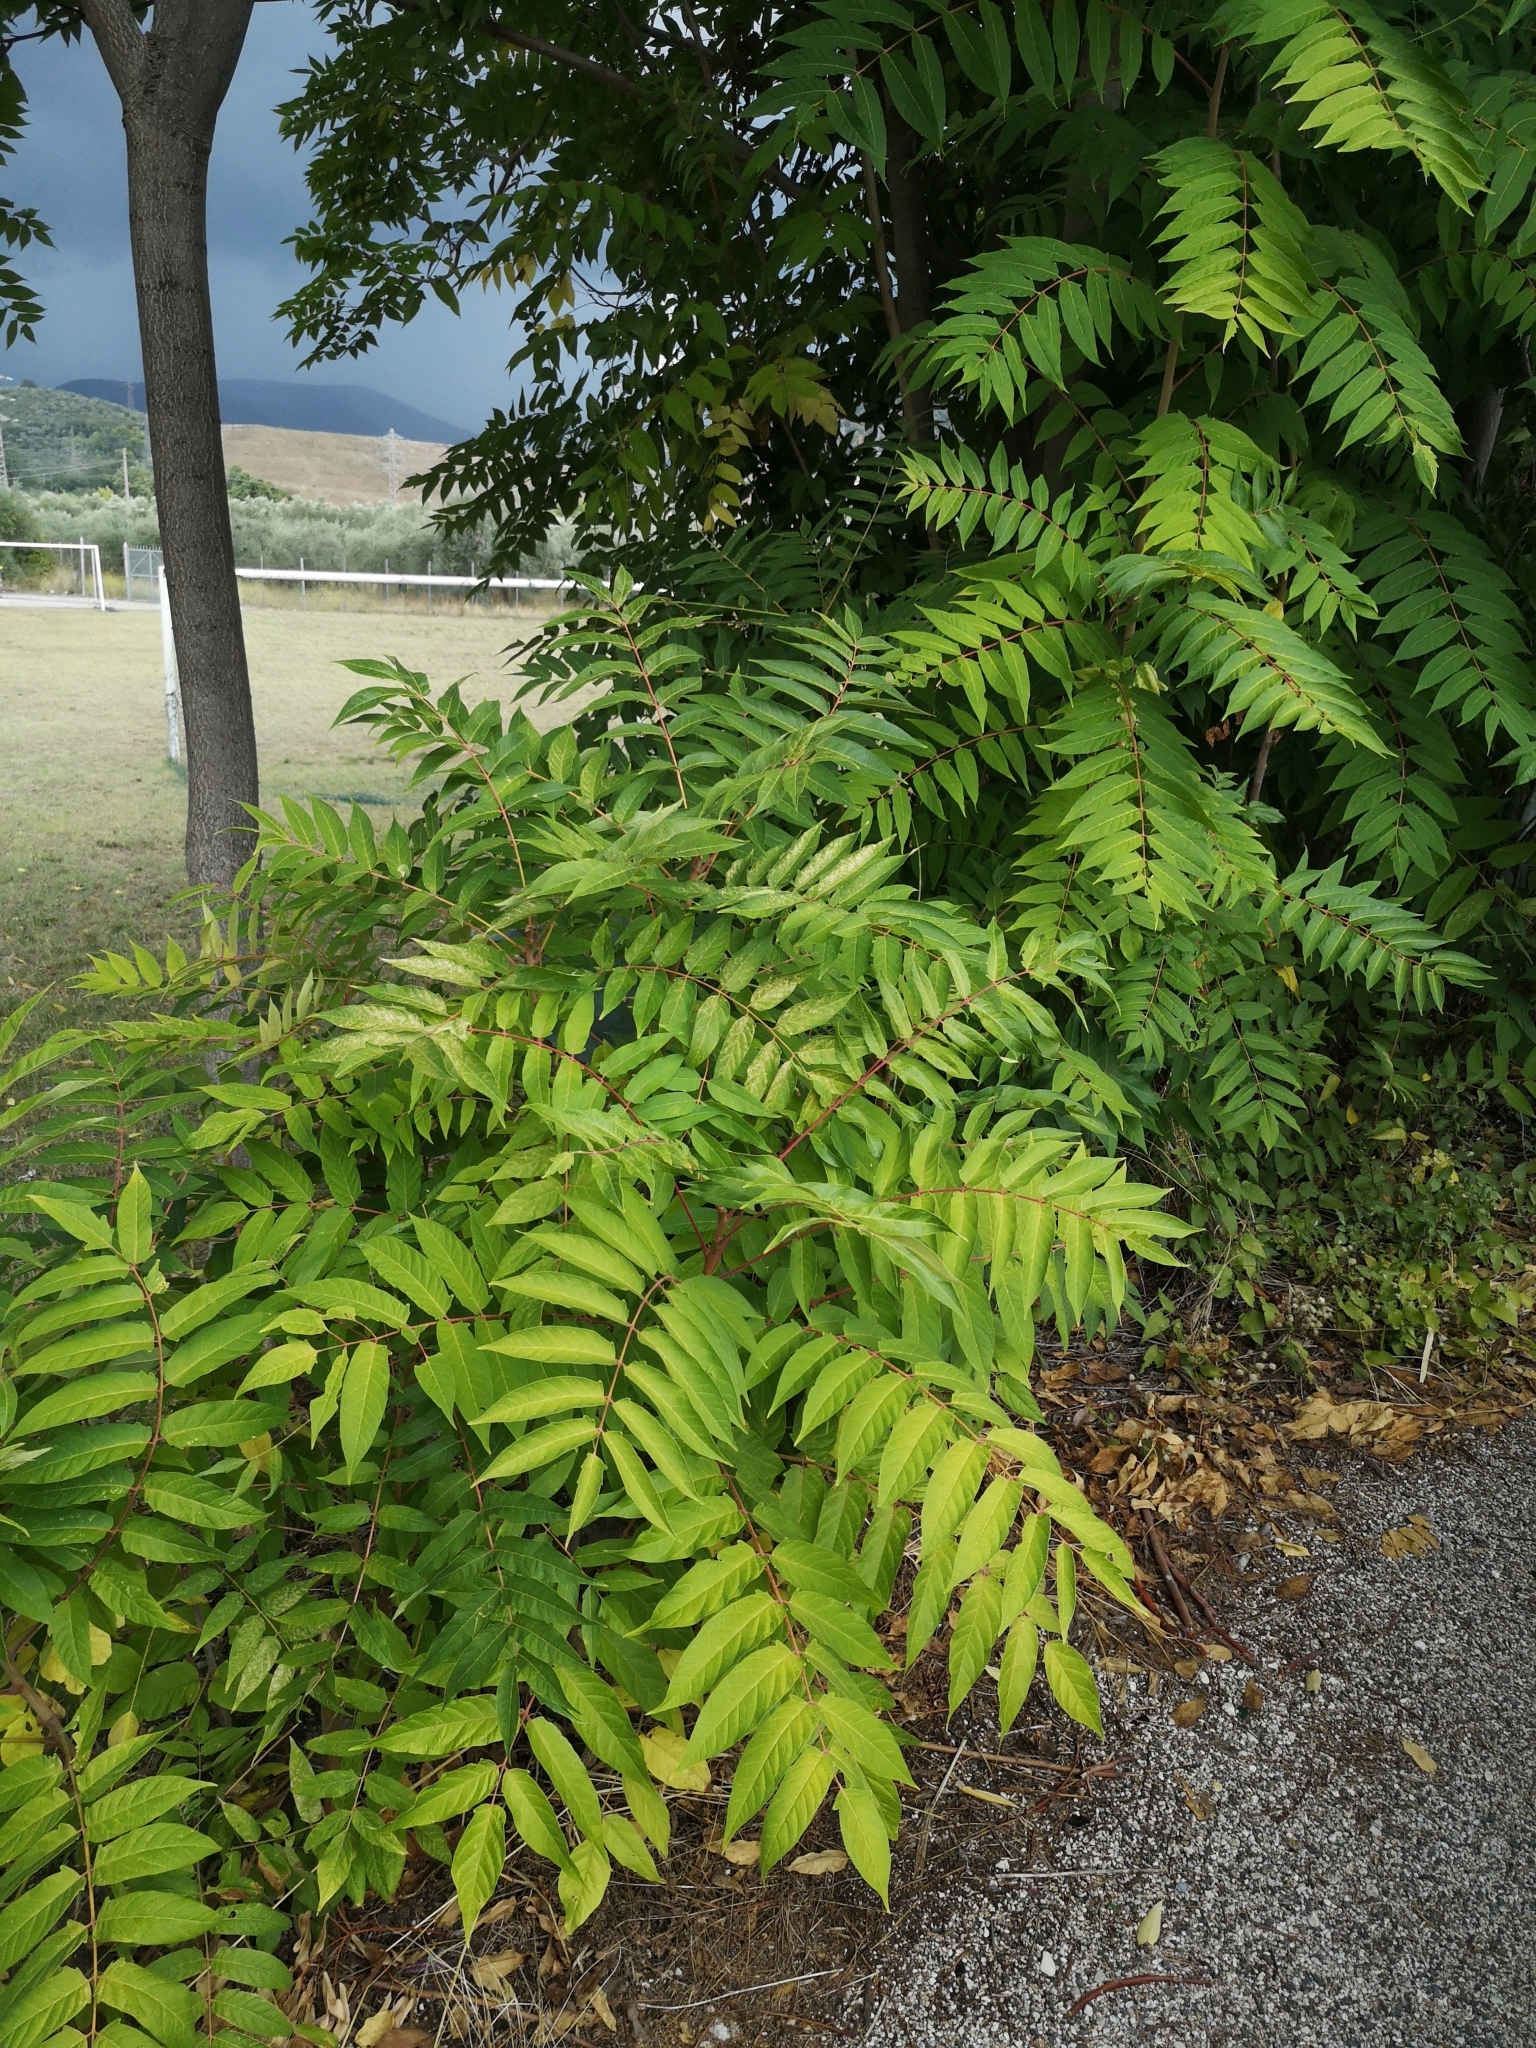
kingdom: Plantae
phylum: Tracheophyta
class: Magnoliopsida
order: Sapindales
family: Simaroubaceae
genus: Ailanthus
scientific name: Ailanthus altissima
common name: Tree-of-heaven
